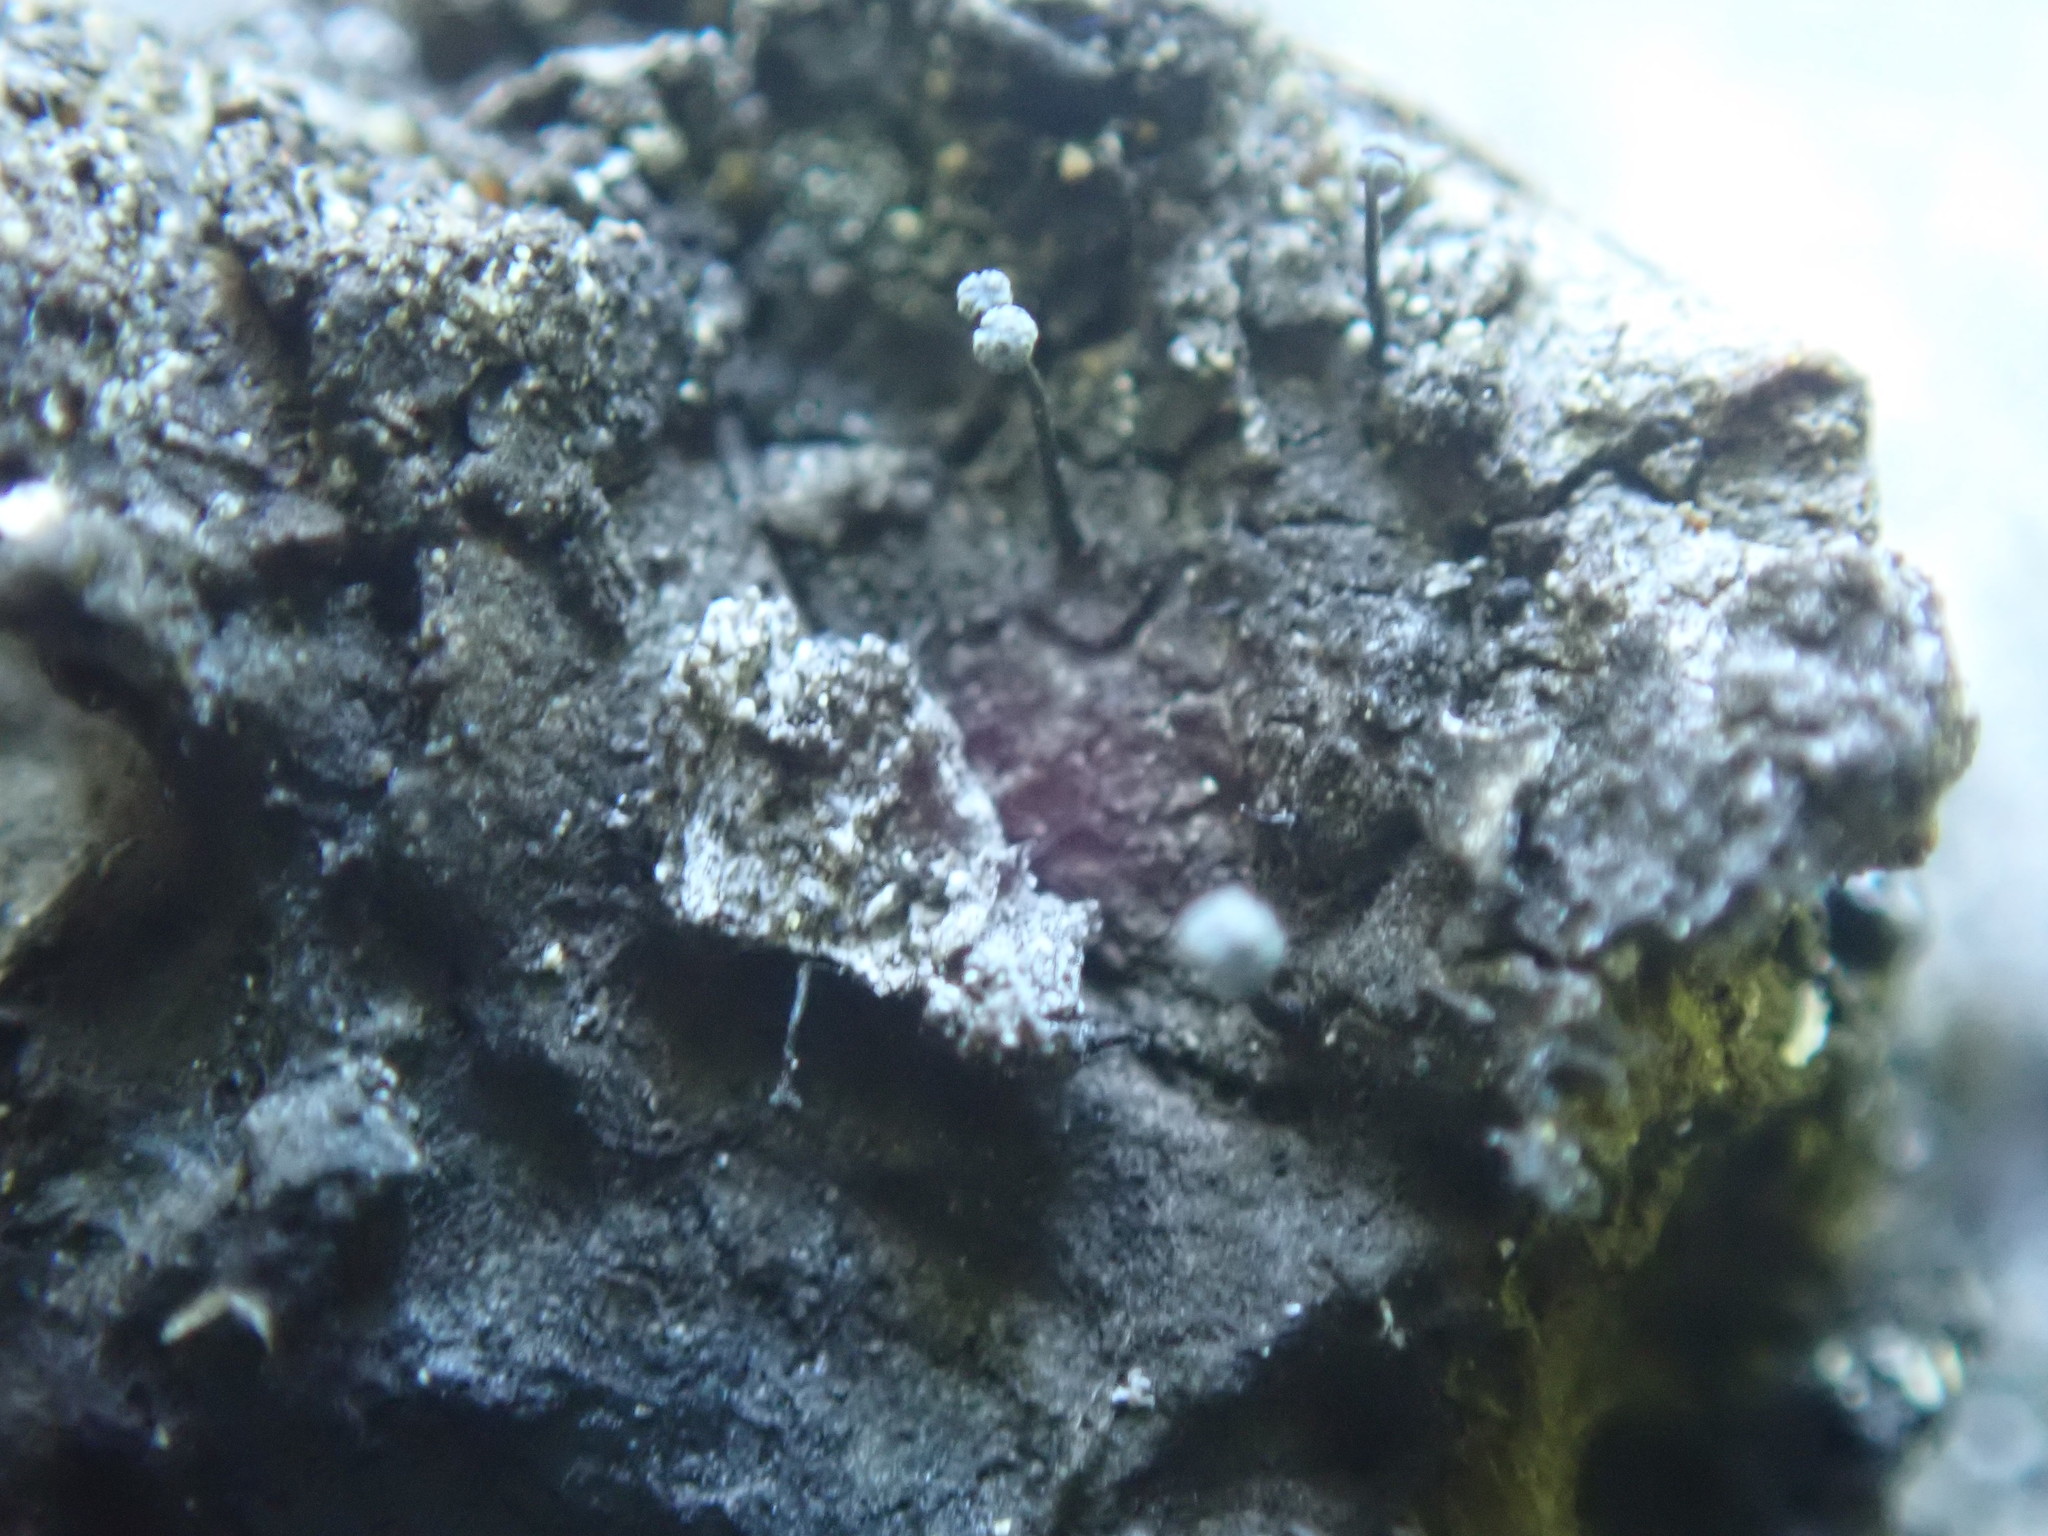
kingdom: Fungi
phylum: Ascomycota
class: Eurotiomycetes
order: Mycocaliciales
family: Mycocaliciaceae
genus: Chaenothecopsis
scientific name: Chaenothecopsis nigripunctata
